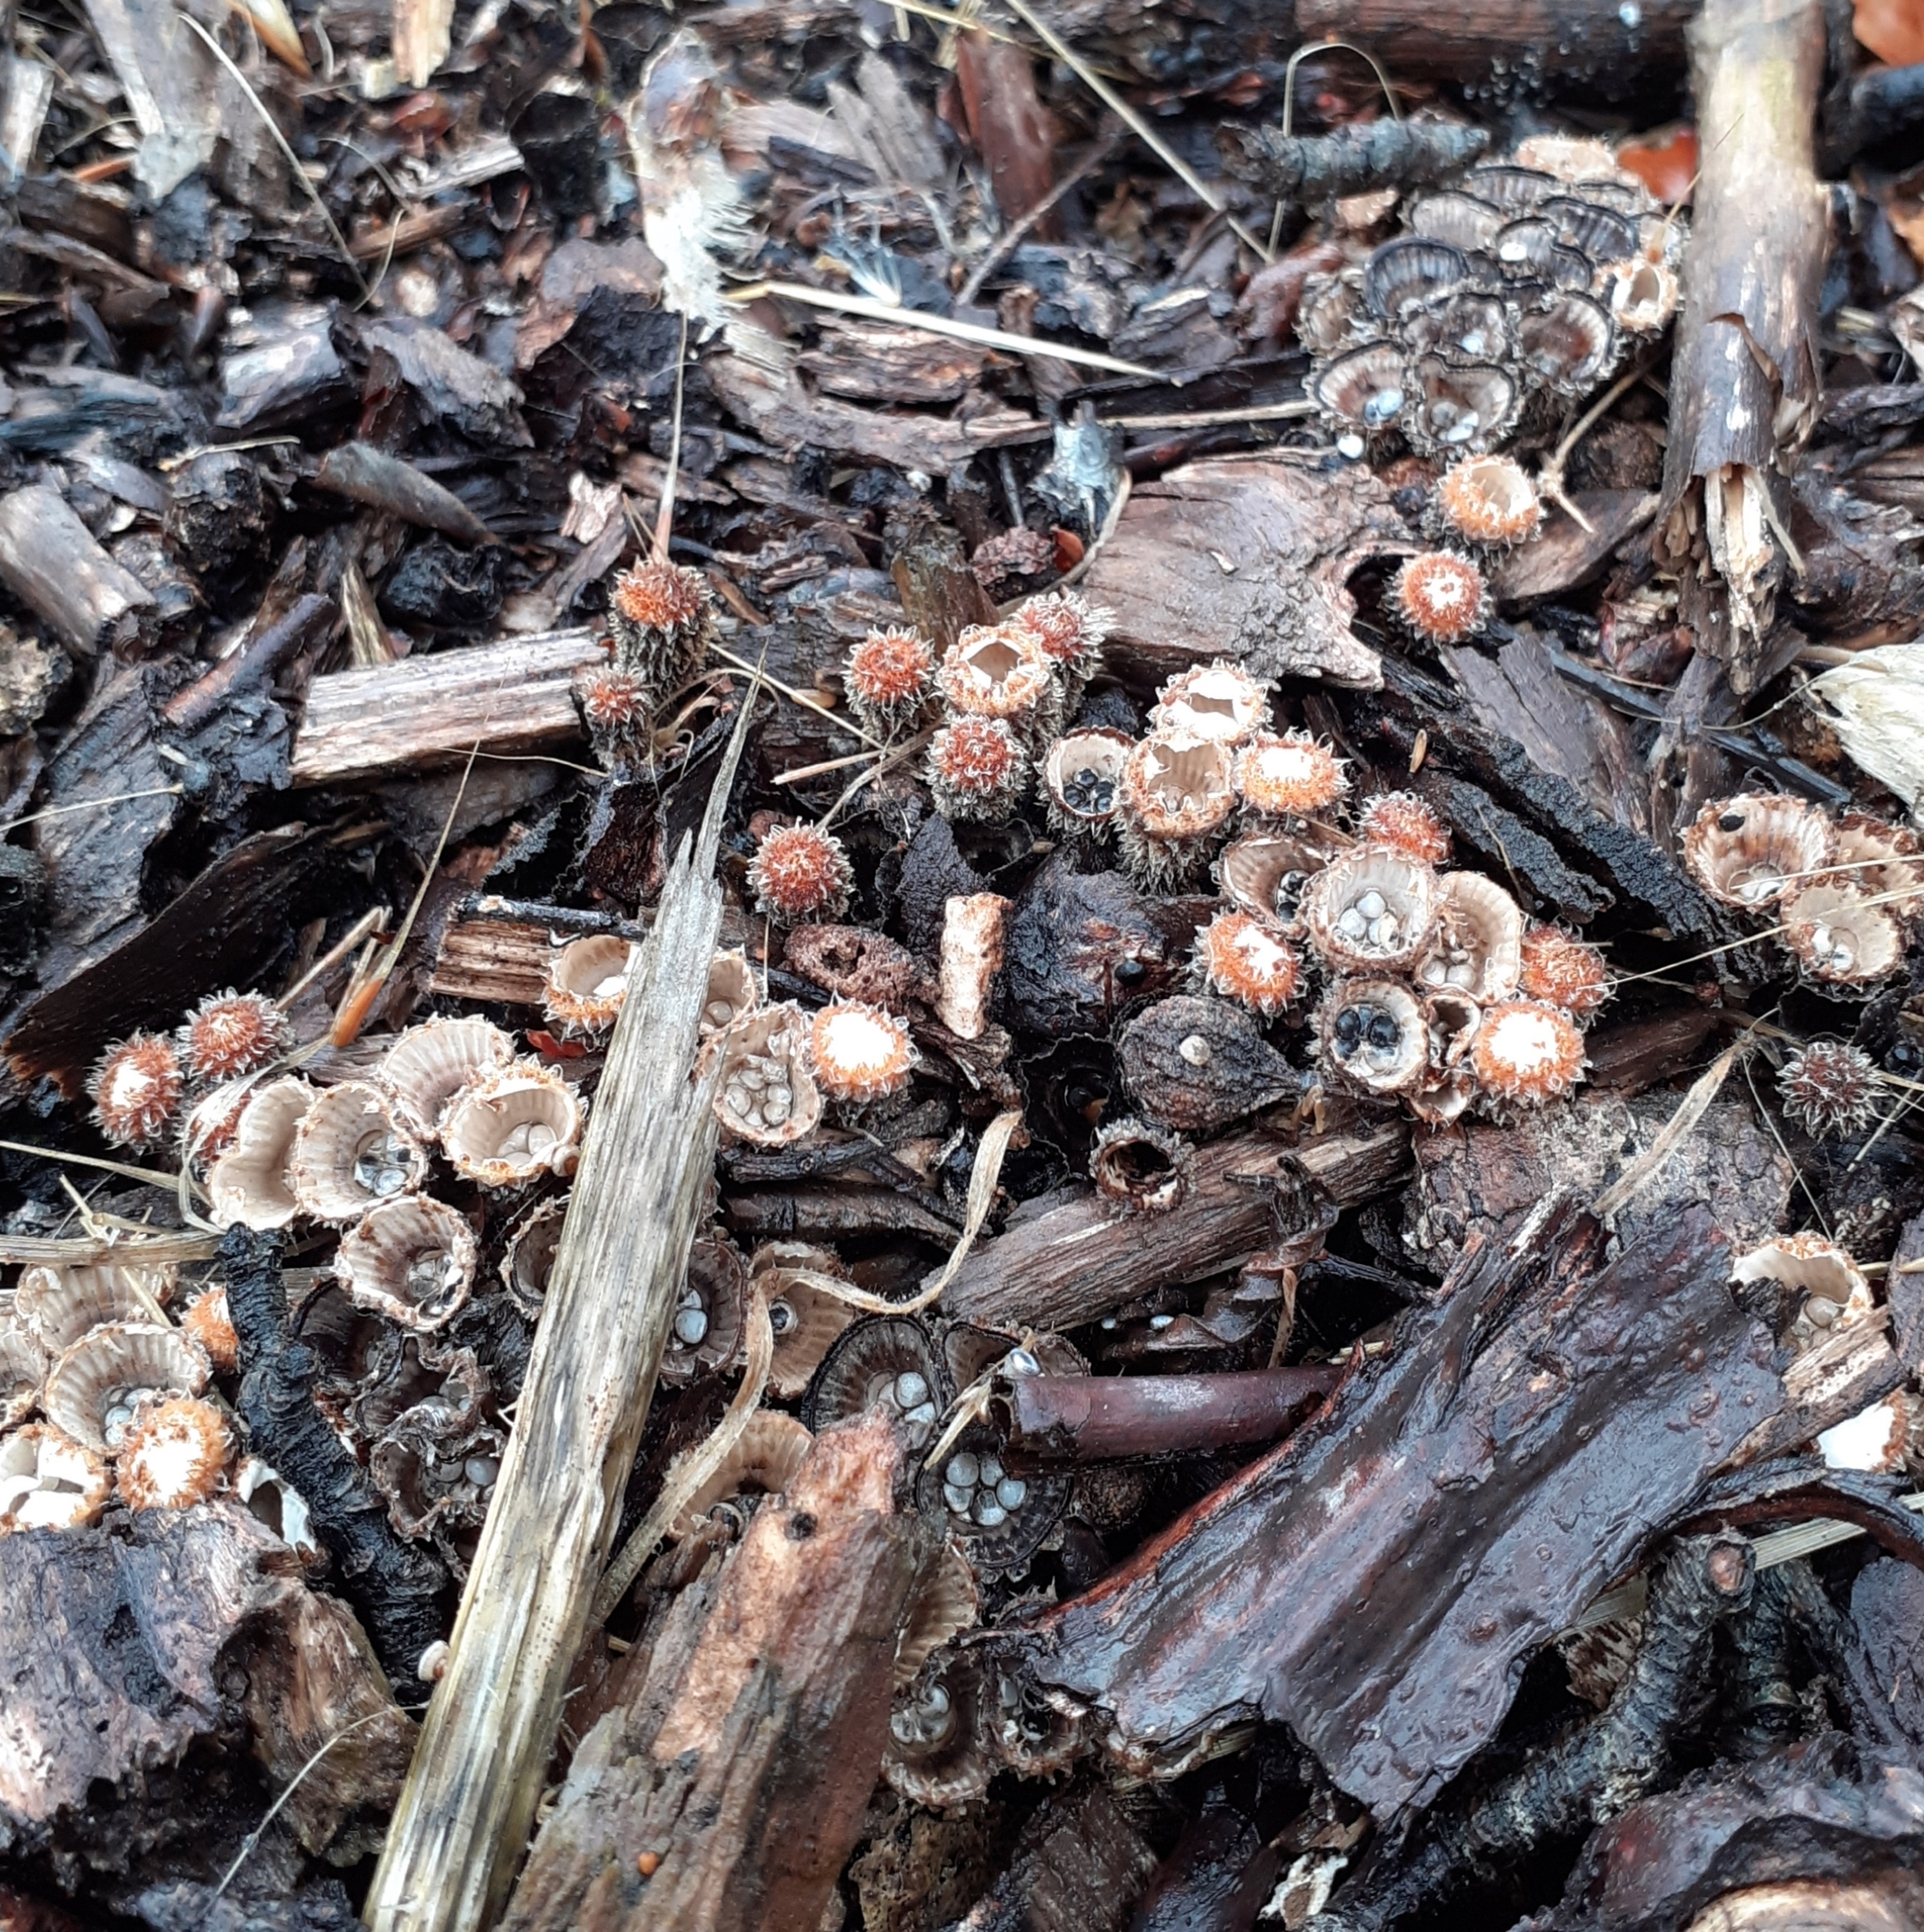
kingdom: Fungi
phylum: Basidiomycota
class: Agaricomycetes
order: Agaricales
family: Agaricaceae
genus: Cyathus
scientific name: Cyathus striatus
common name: Fluted bird's nest
